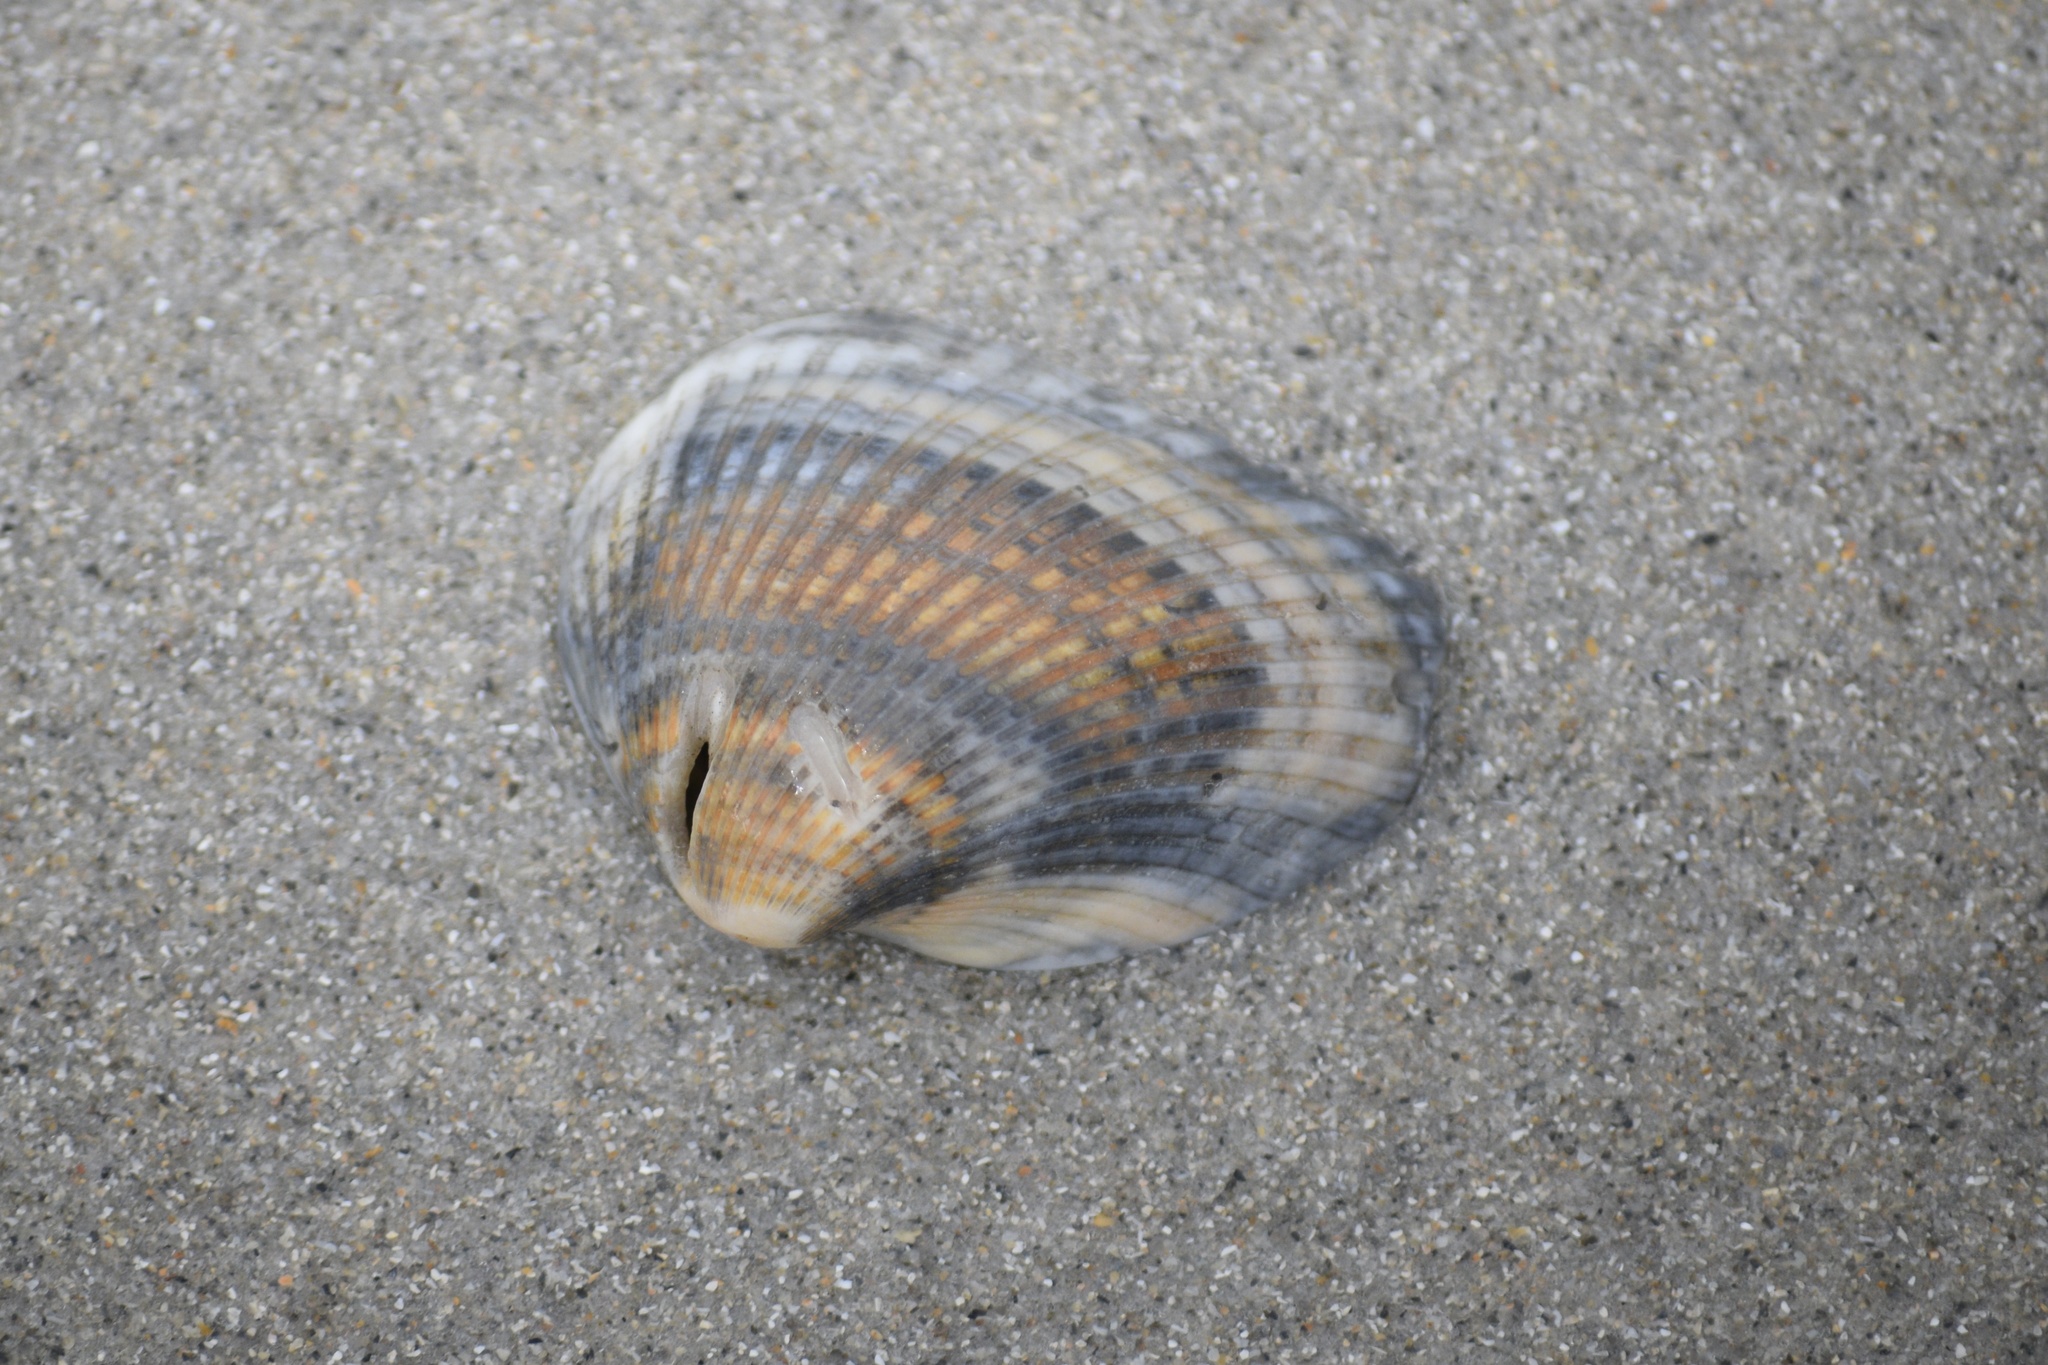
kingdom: Animalia
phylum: Mollusca
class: Bivalvia
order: Arcida
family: Noetiidae
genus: Noetia
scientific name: Noetia ponderosa
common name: Ponderous ark
